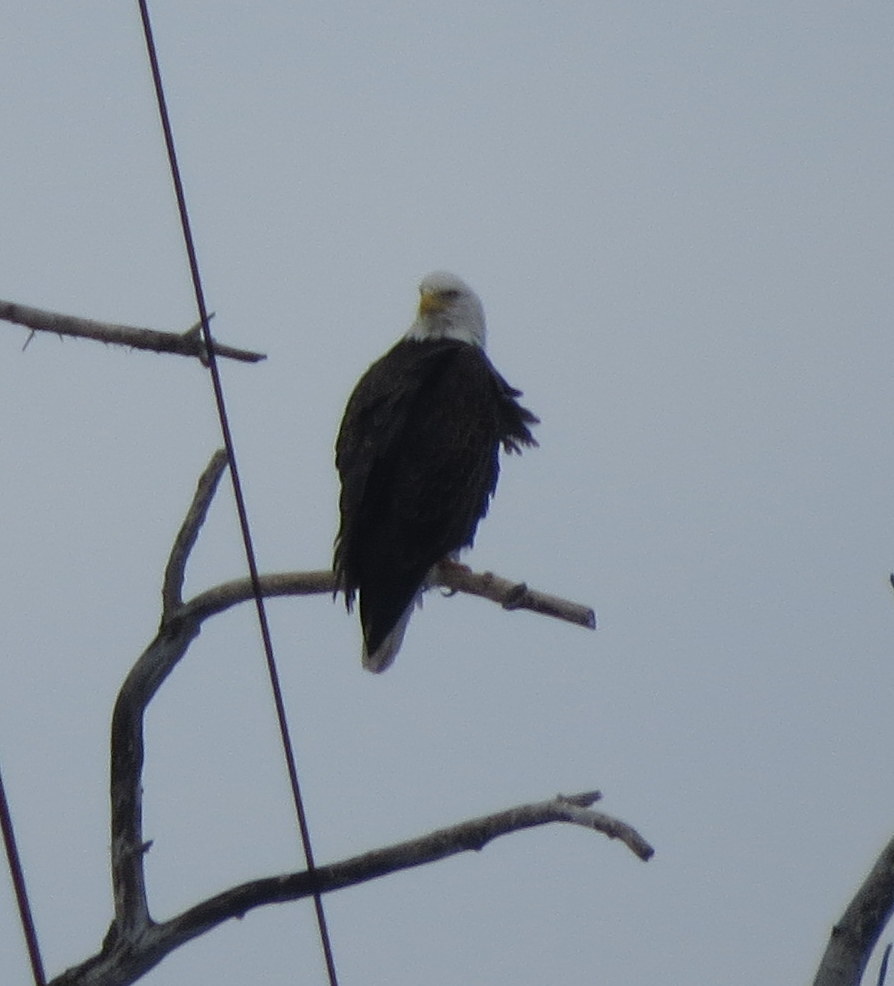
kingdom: Animalia
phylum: Chordata
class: Aves
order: Accipitriformes
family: Accipitridae
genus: Haliaeetus
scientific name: Haliaeetus leucocephalus
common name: Bald eagle
